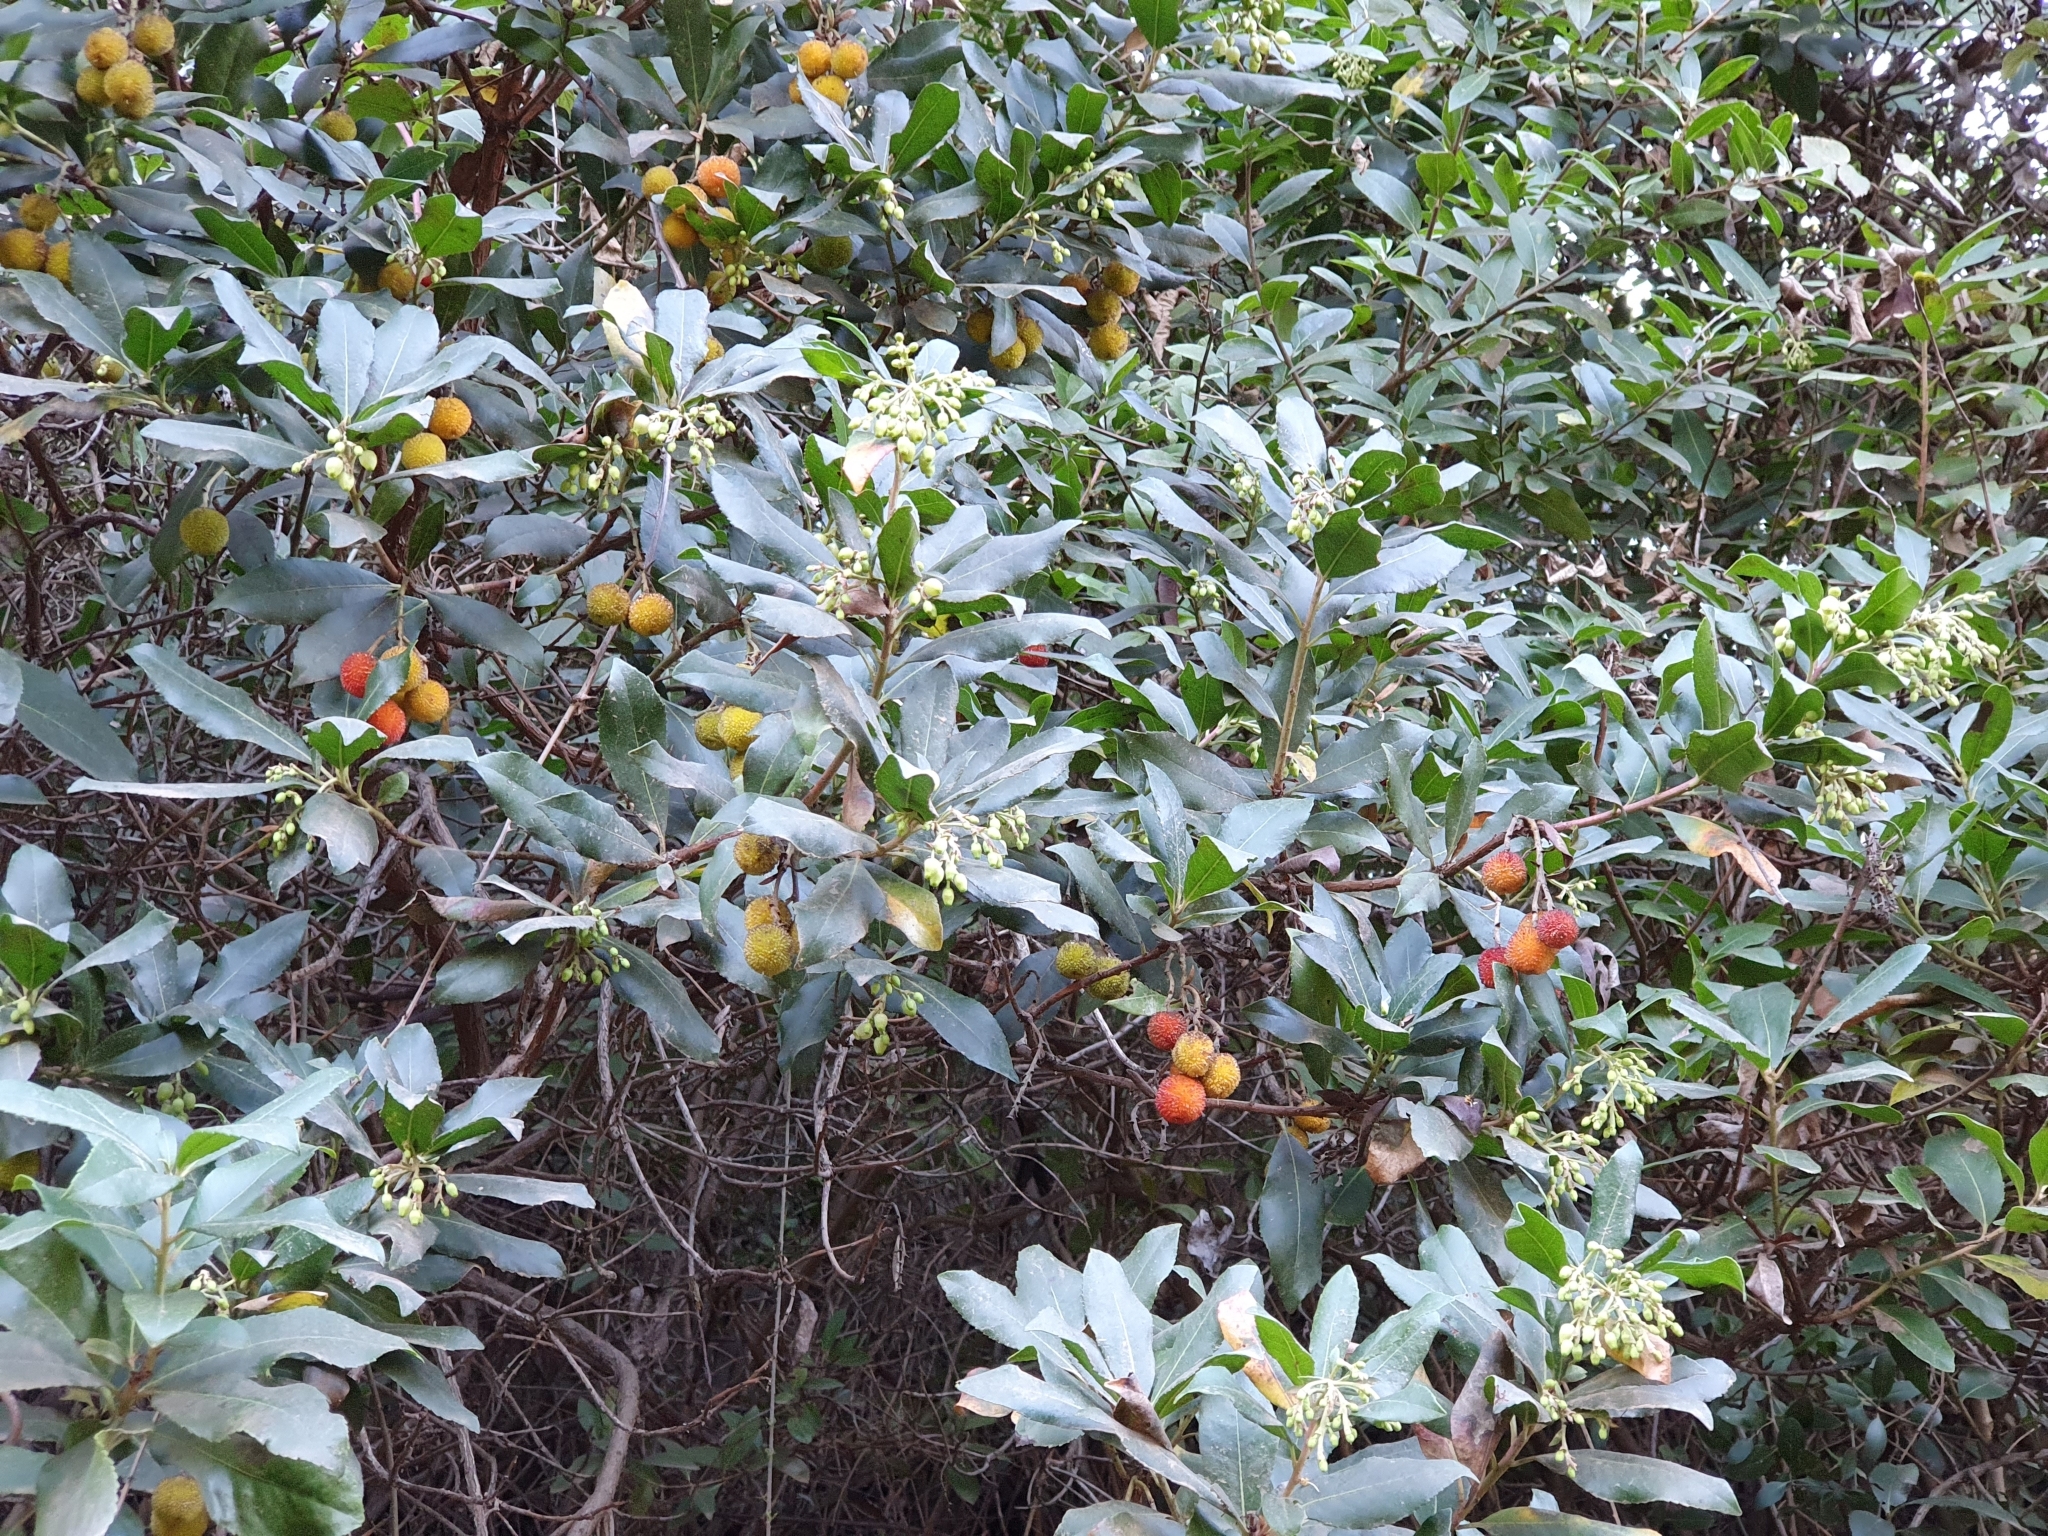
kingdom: Plantae
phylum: Tracheophyta
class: Magnoliopsida
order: Ericales
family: Ericaceae
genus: Arbutus
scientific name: Arbutus unedo
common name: Strawberry-tree
